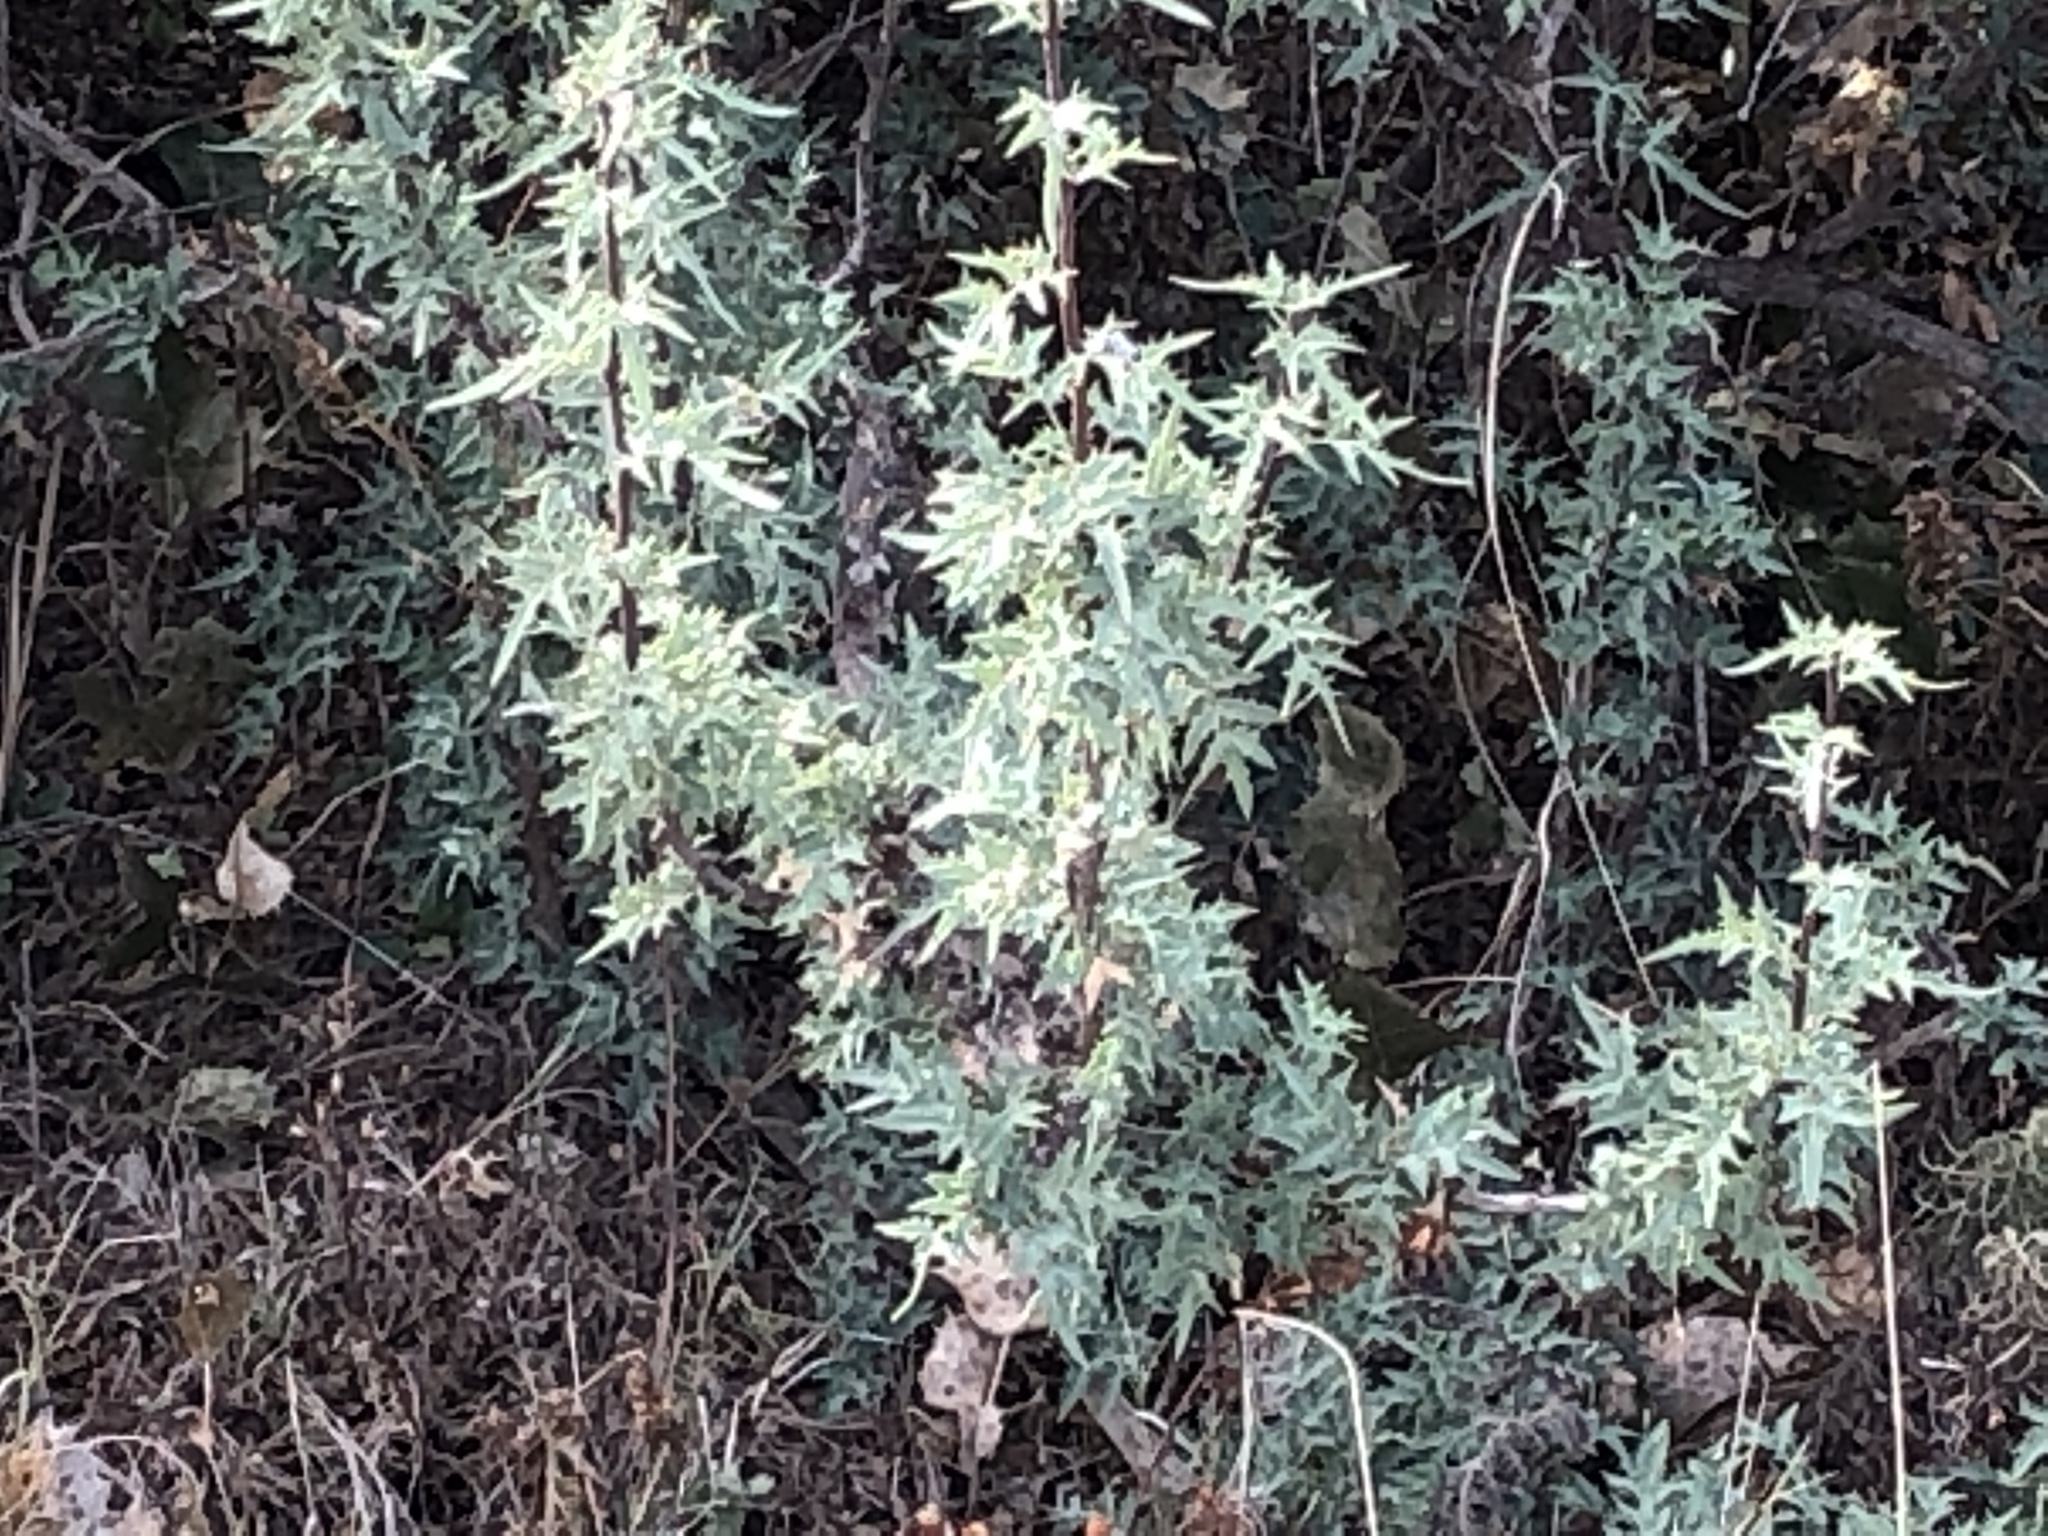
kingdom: Plantae
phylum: Tracheophyta
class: Magnoliopsida
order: Ranunculales
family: Berberidaceae
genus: Alloberberis
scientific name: Alloberberis haematocarpa
